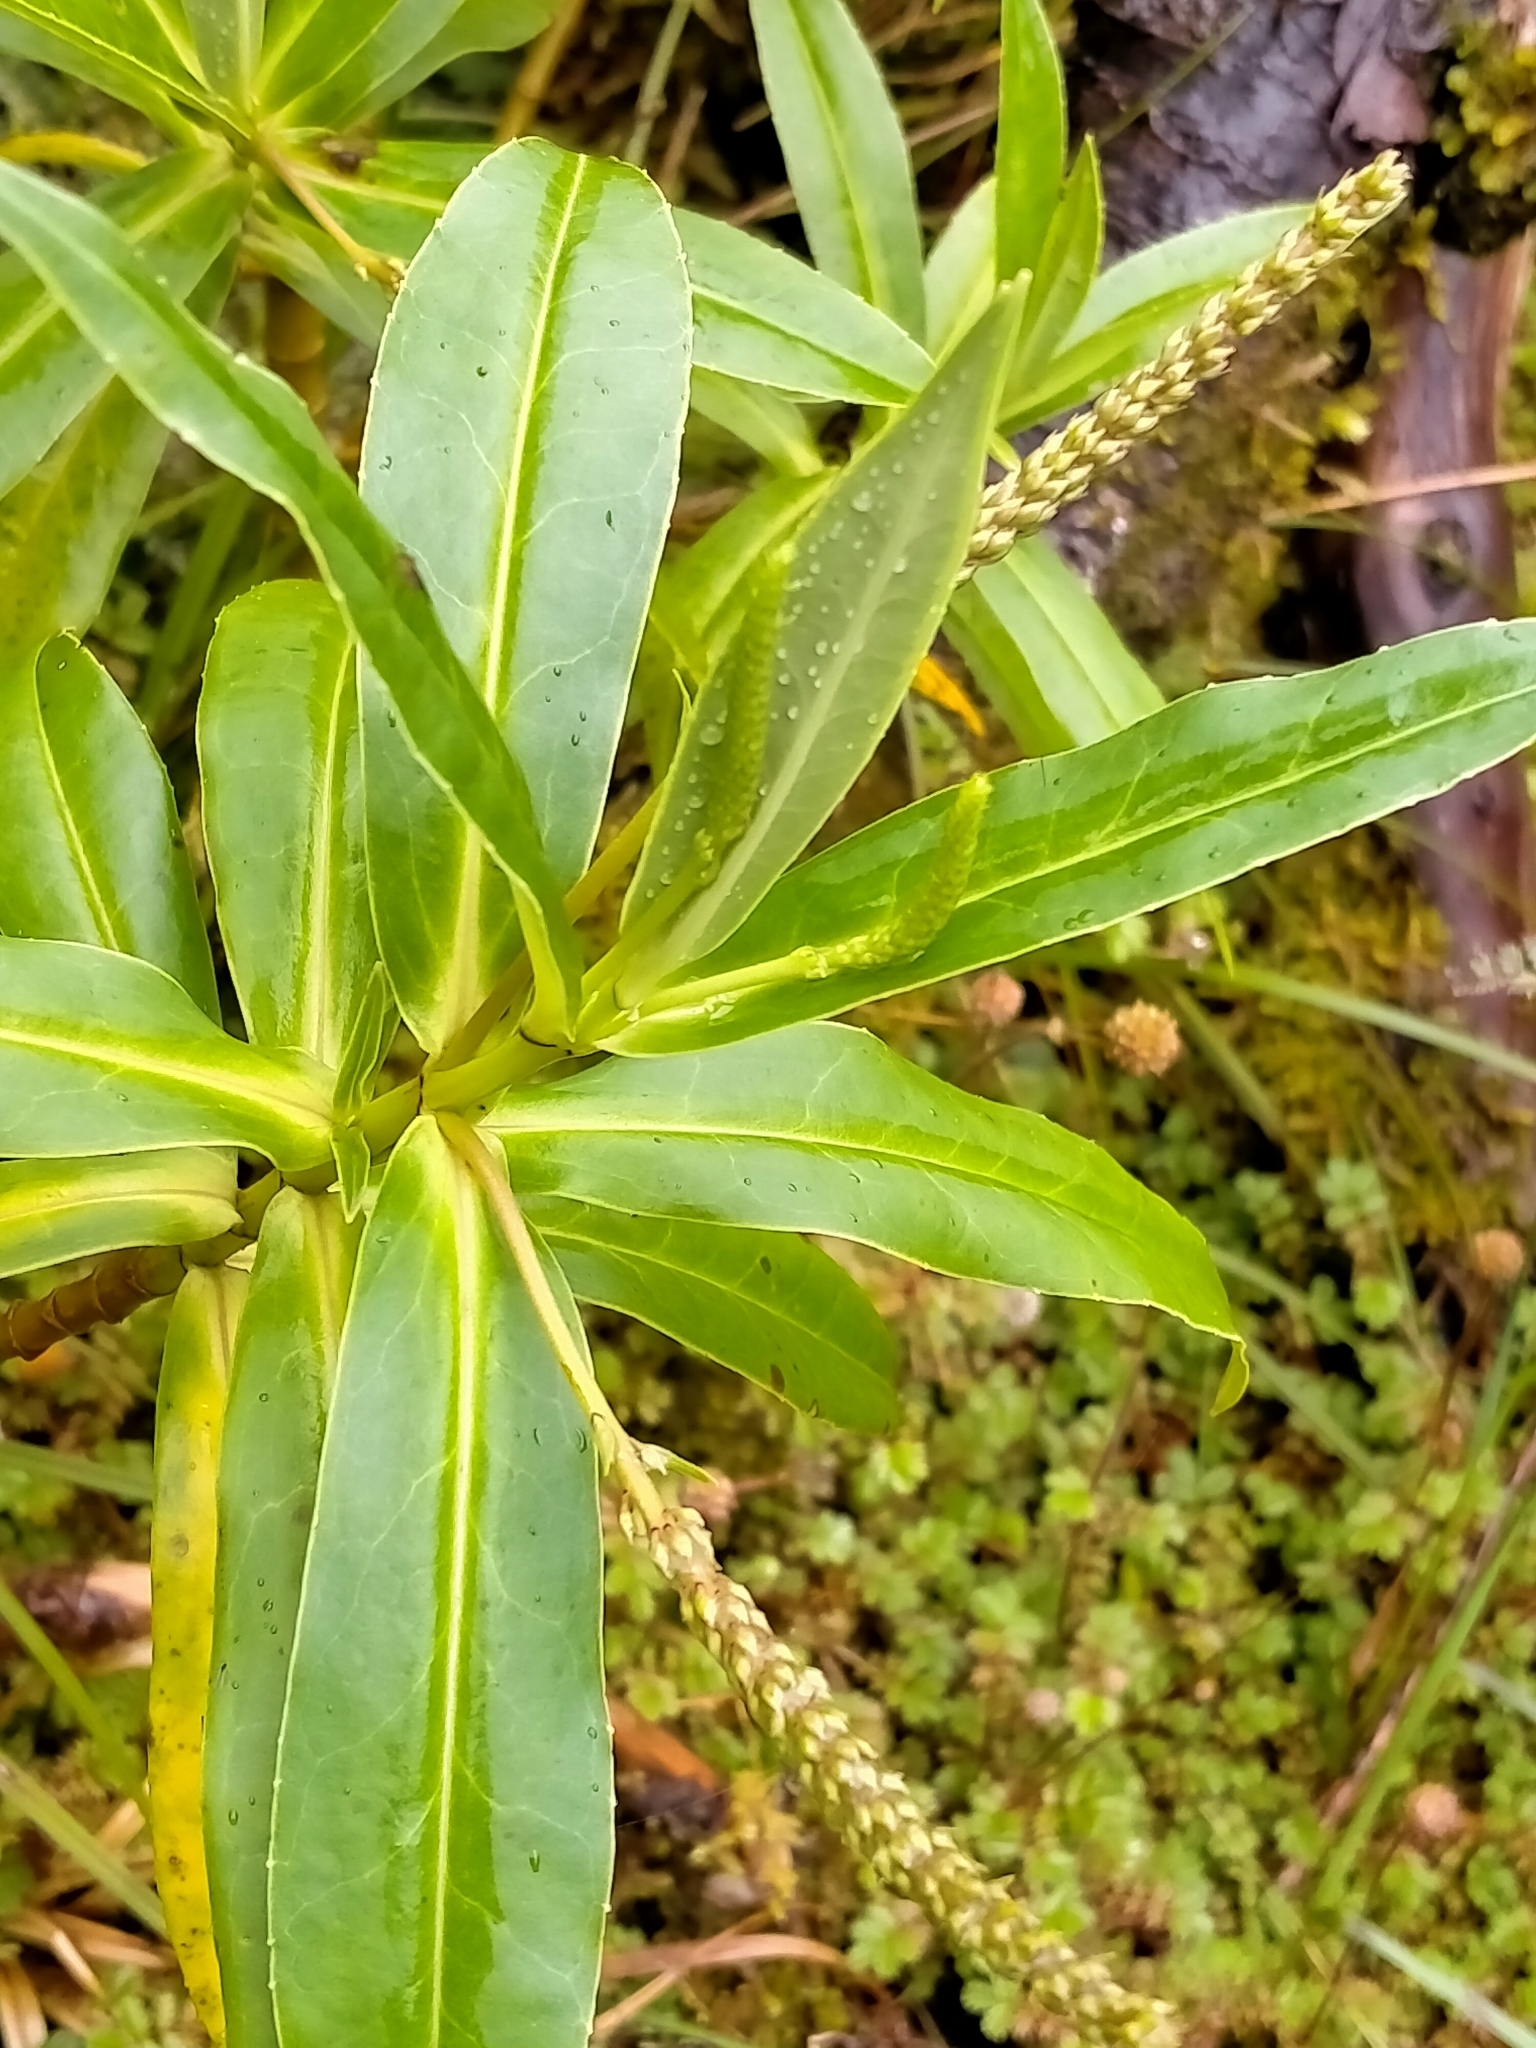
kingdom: Plantae
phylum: Tracheophyta
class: Magnoliopsida
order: Lamiales
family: Plantaginaceae
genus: Veronica
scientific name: Veronica salicifolia
